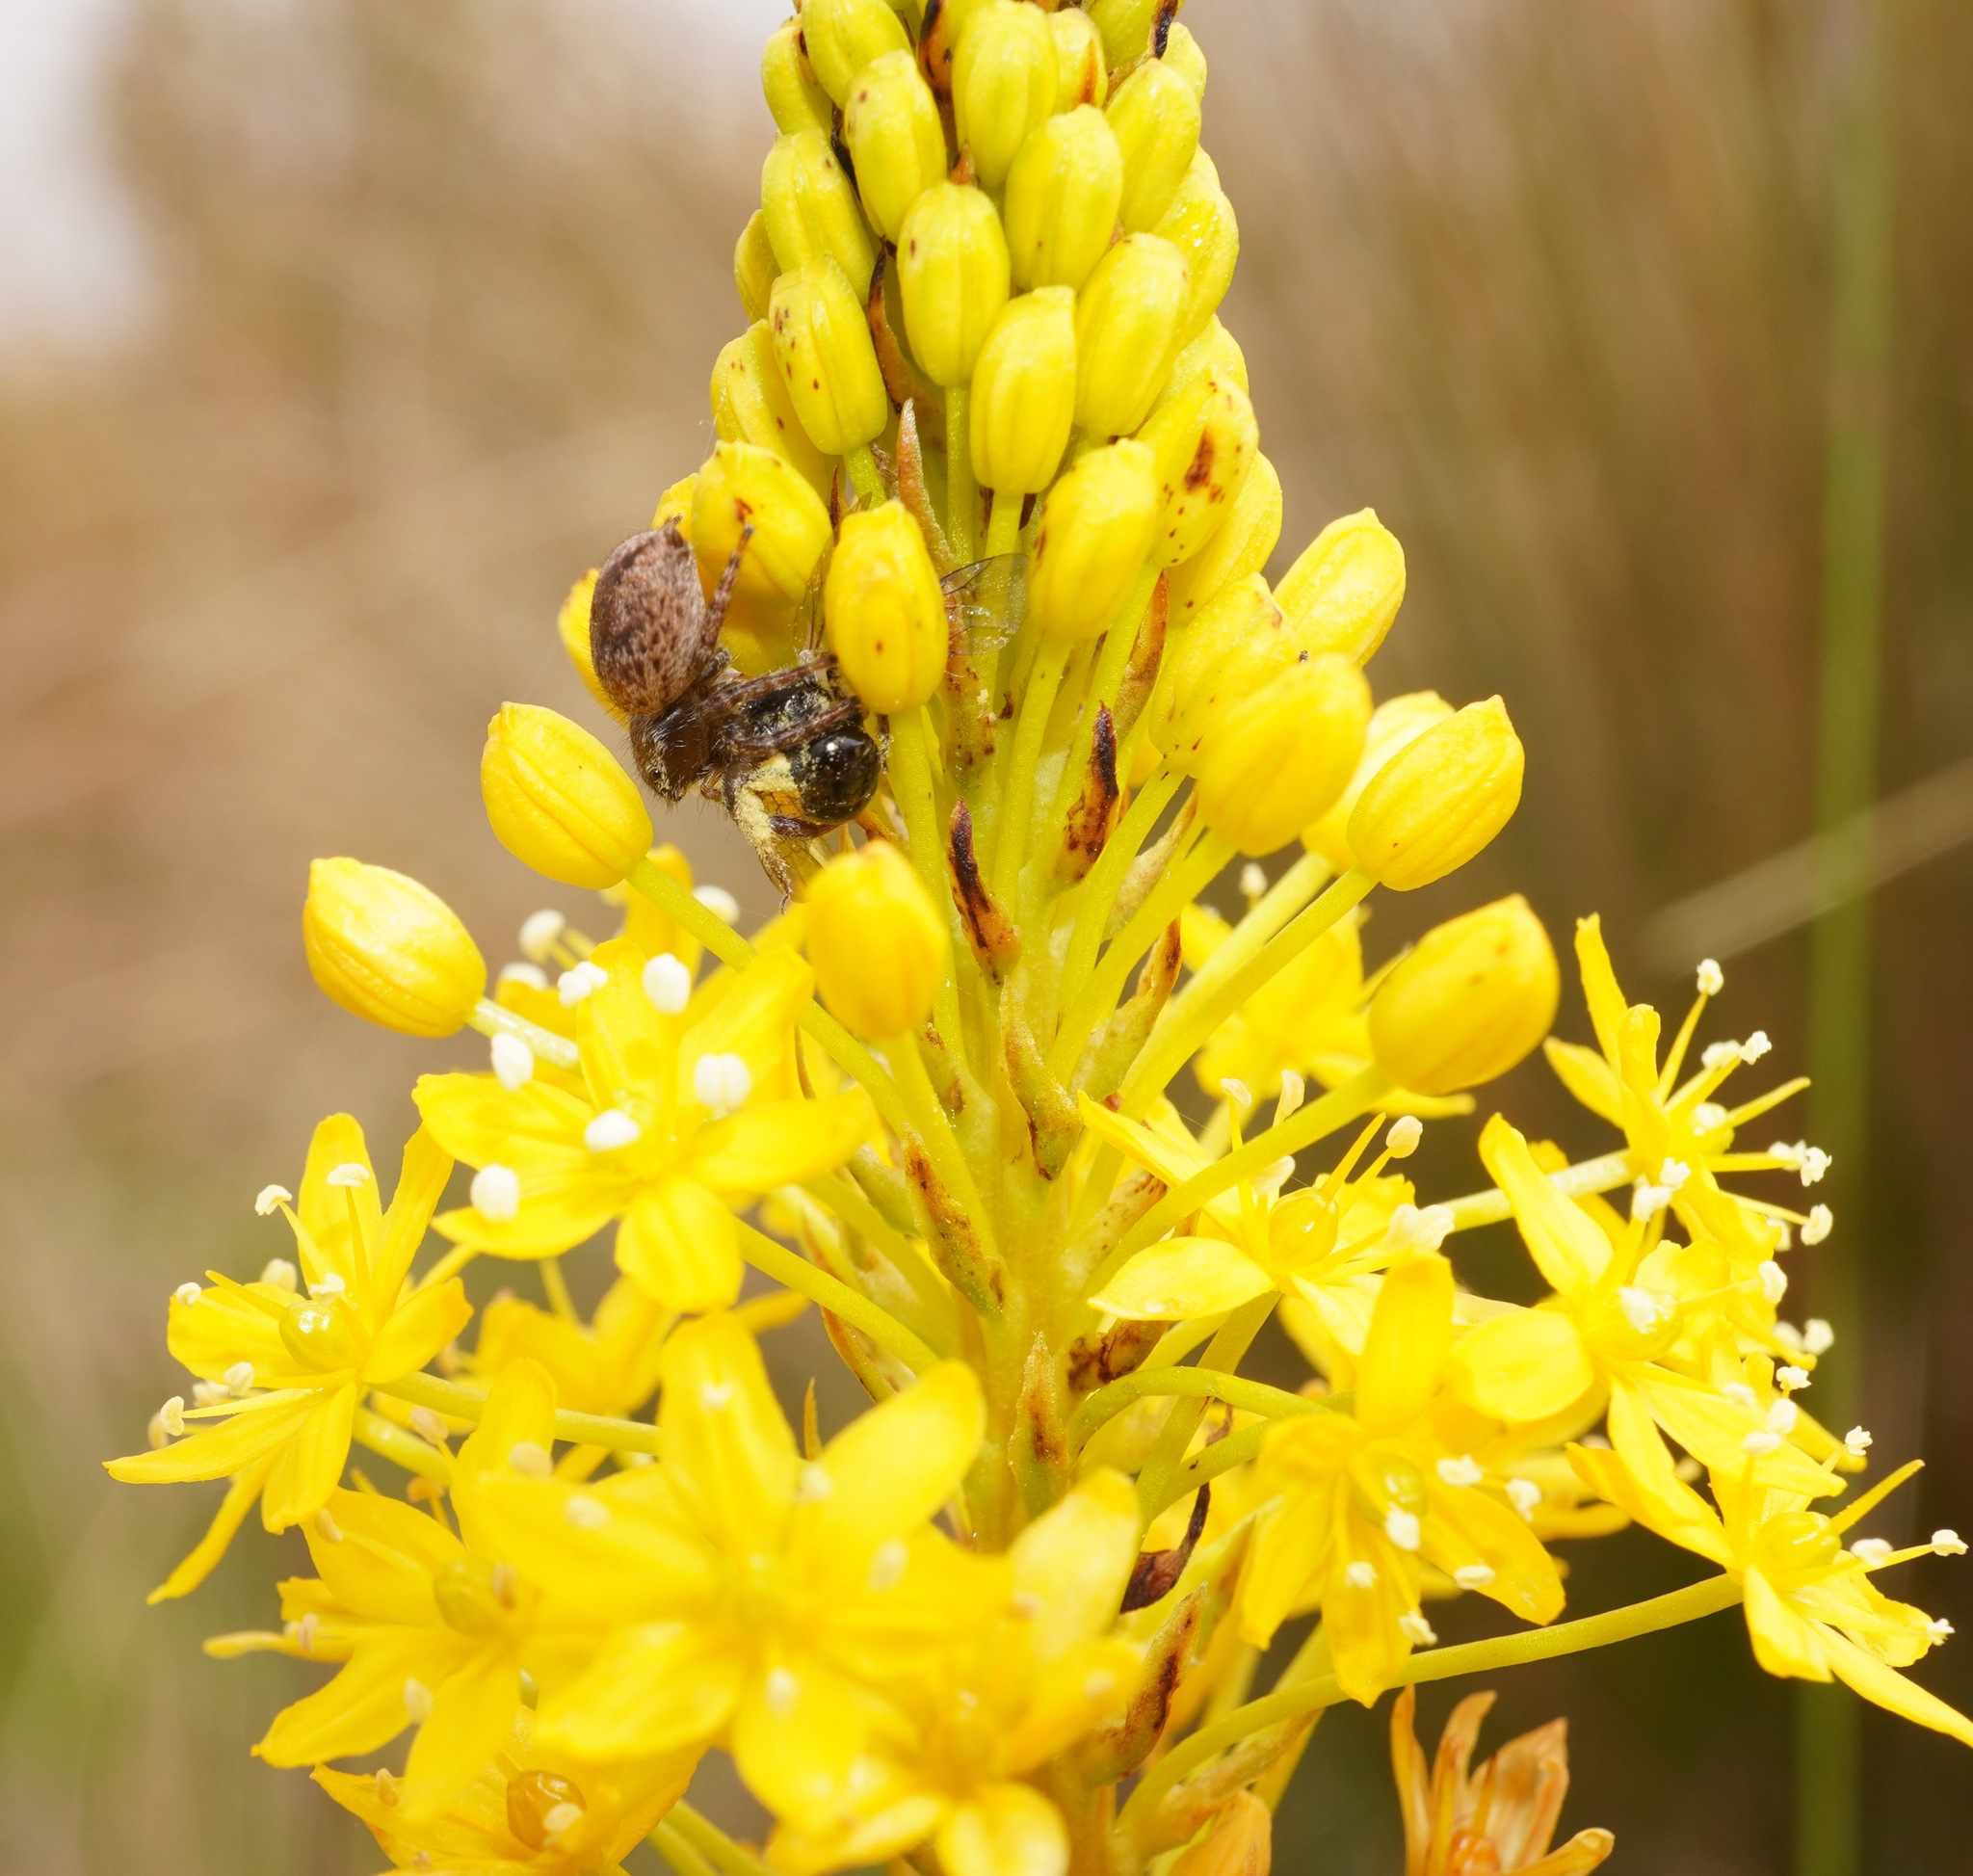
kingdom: Animalia
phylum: Arthropoda
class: Arachnida
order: Araneae
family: Salticidae
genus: Maratus
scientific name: Maratus griseus
